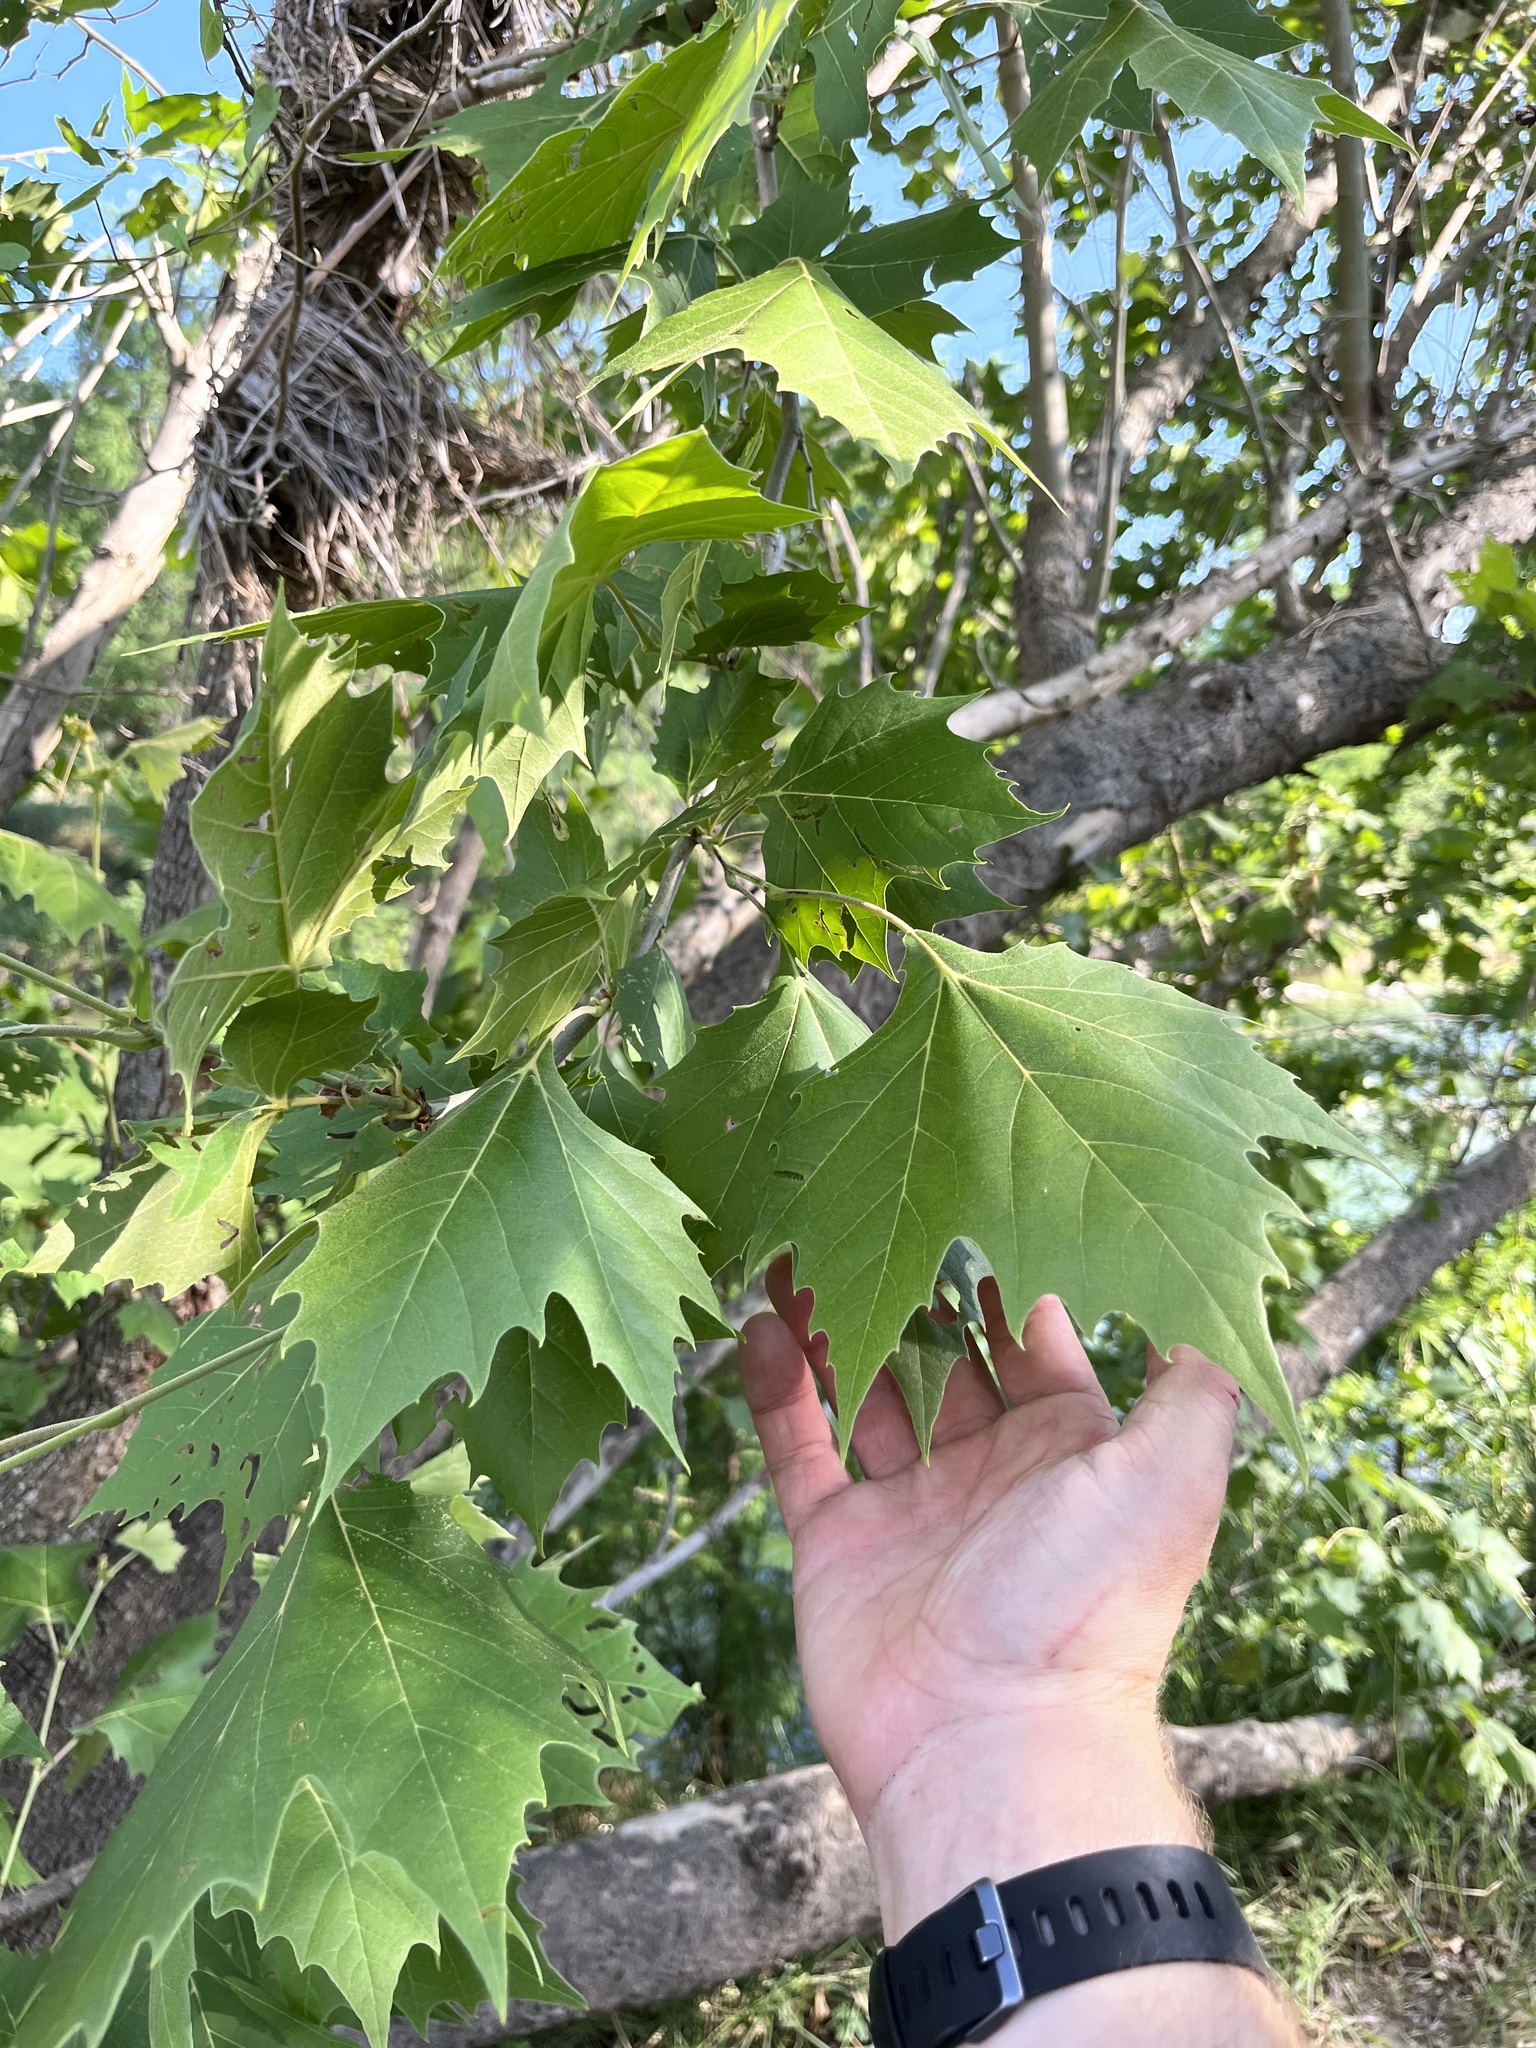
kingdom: Plantae
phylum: Tracheophyta
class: Magnoliopsida
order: Proteales
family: Platanaceae
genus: Platanus
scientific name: Platanus occidentalis
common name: American sycamore
